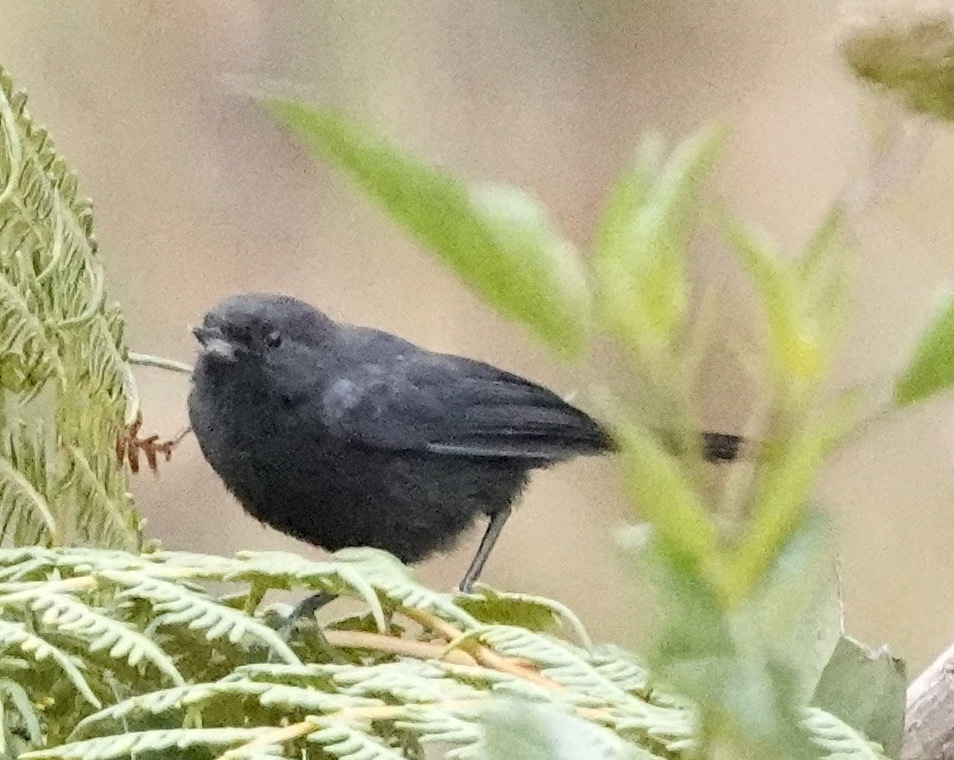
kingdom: Animalia
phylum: Chordata
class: Aves
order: Passeriformes
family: Thraupidae
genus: Diglossa
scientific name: Diglossa humeralis
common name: Black flowerpiercer
